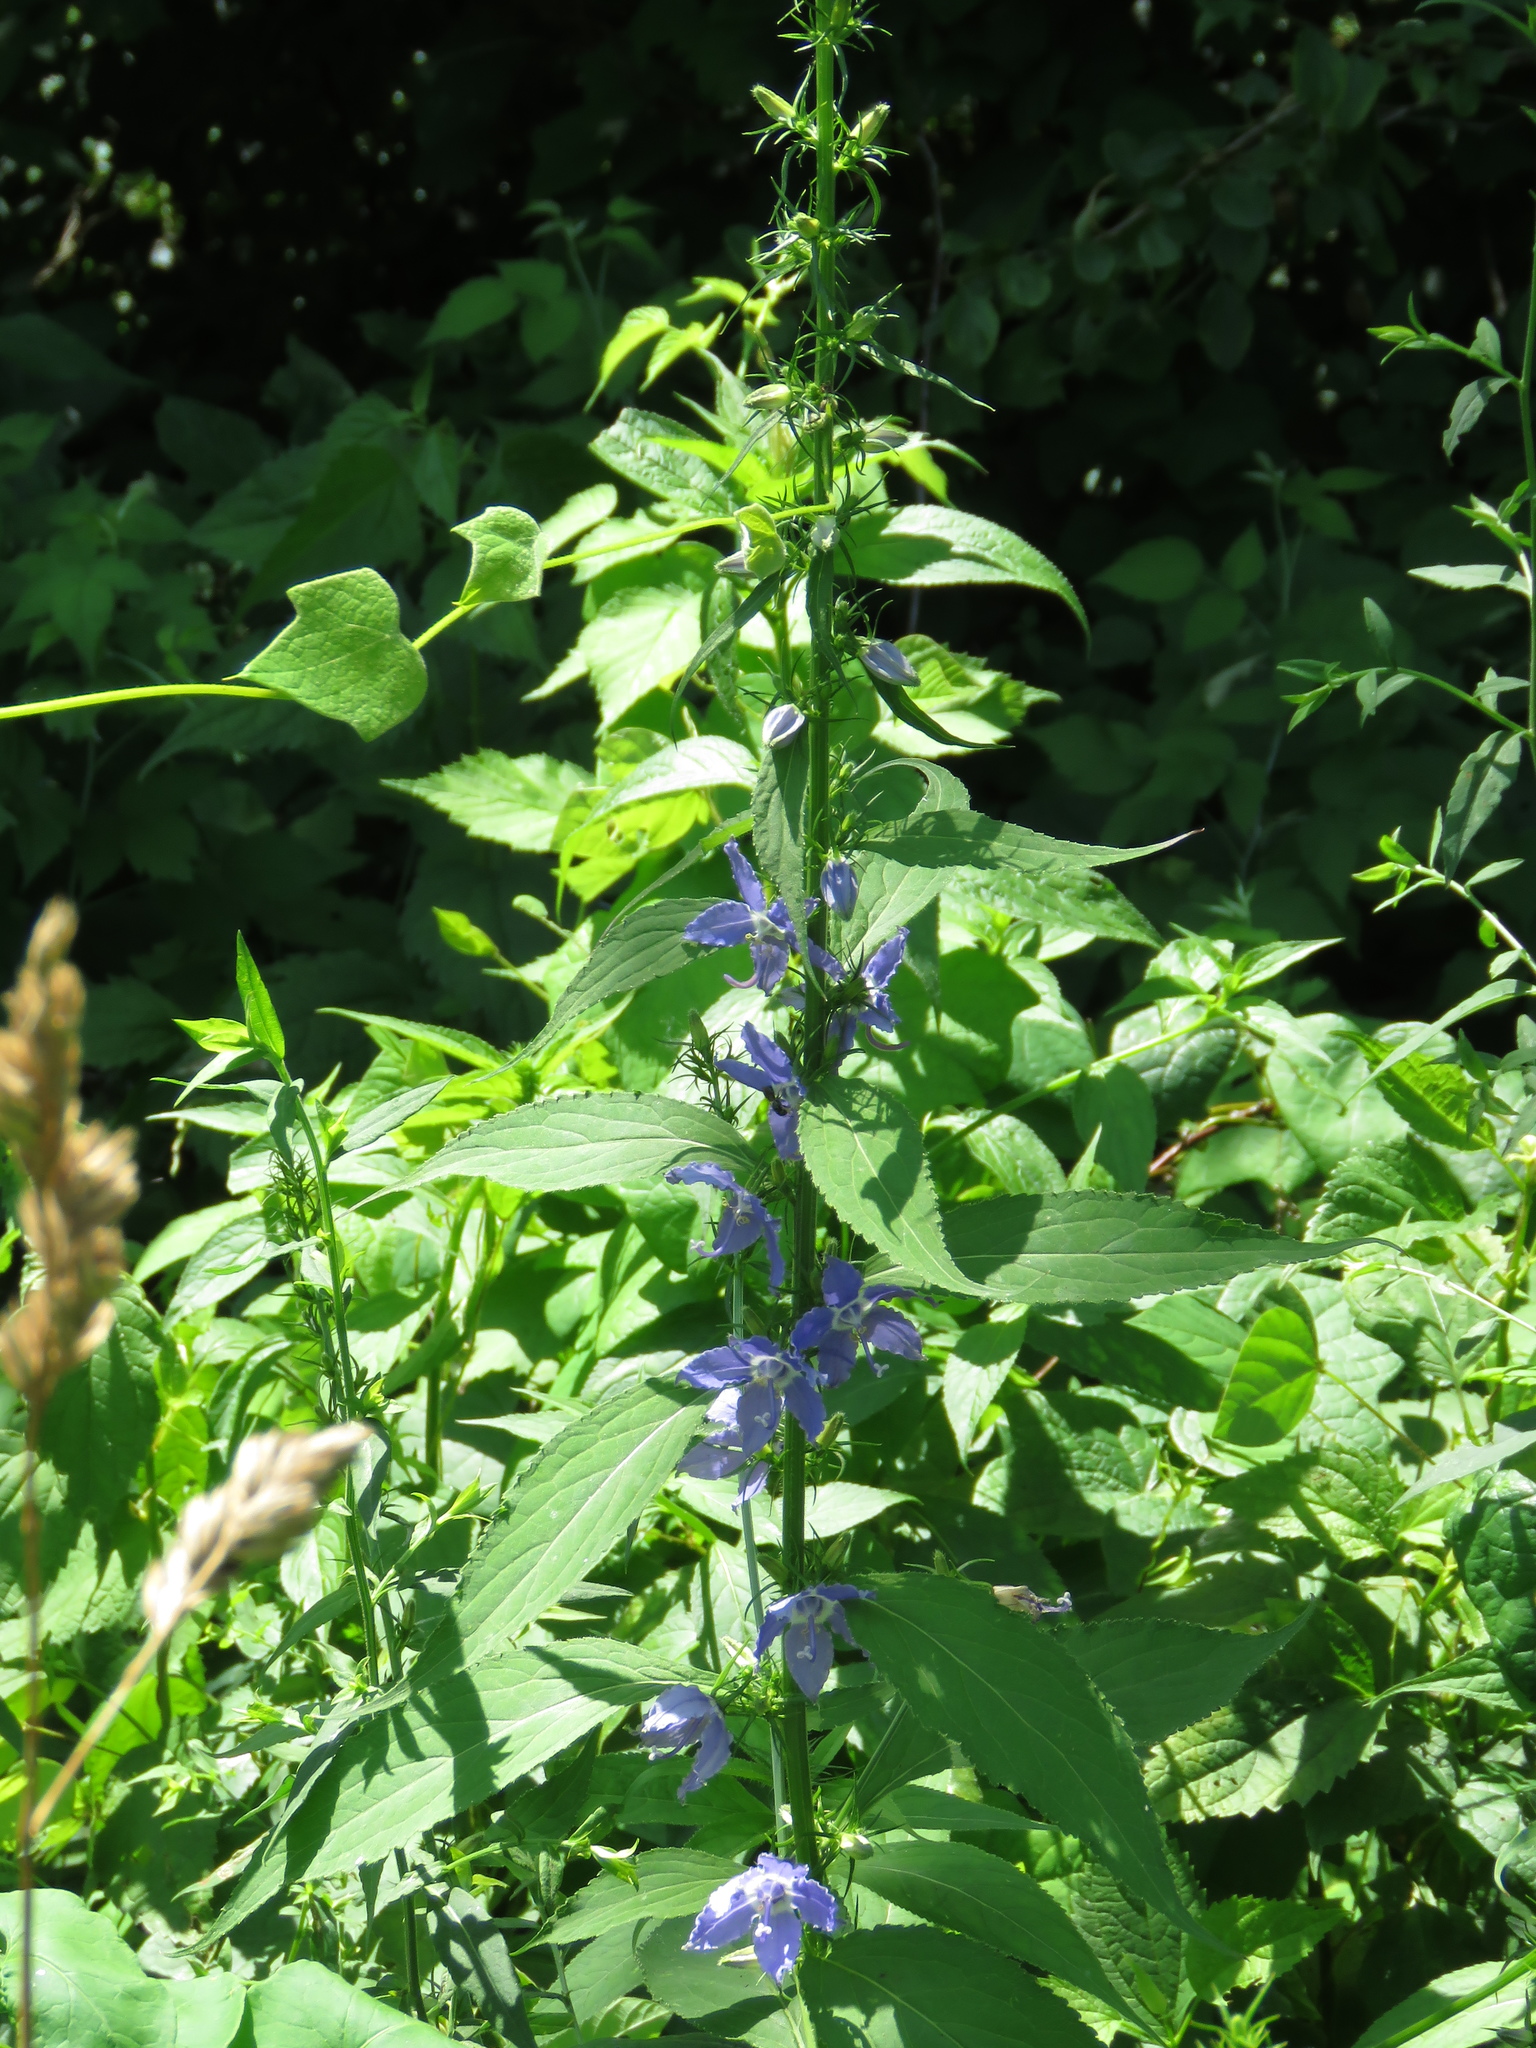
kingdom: Plantae
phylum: Tracheophyta
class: Magnoliopsida
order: Asterales
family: Campanulaceae
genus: Campanulastrum
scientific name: Campanulastrum americanum
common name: American bellflower
